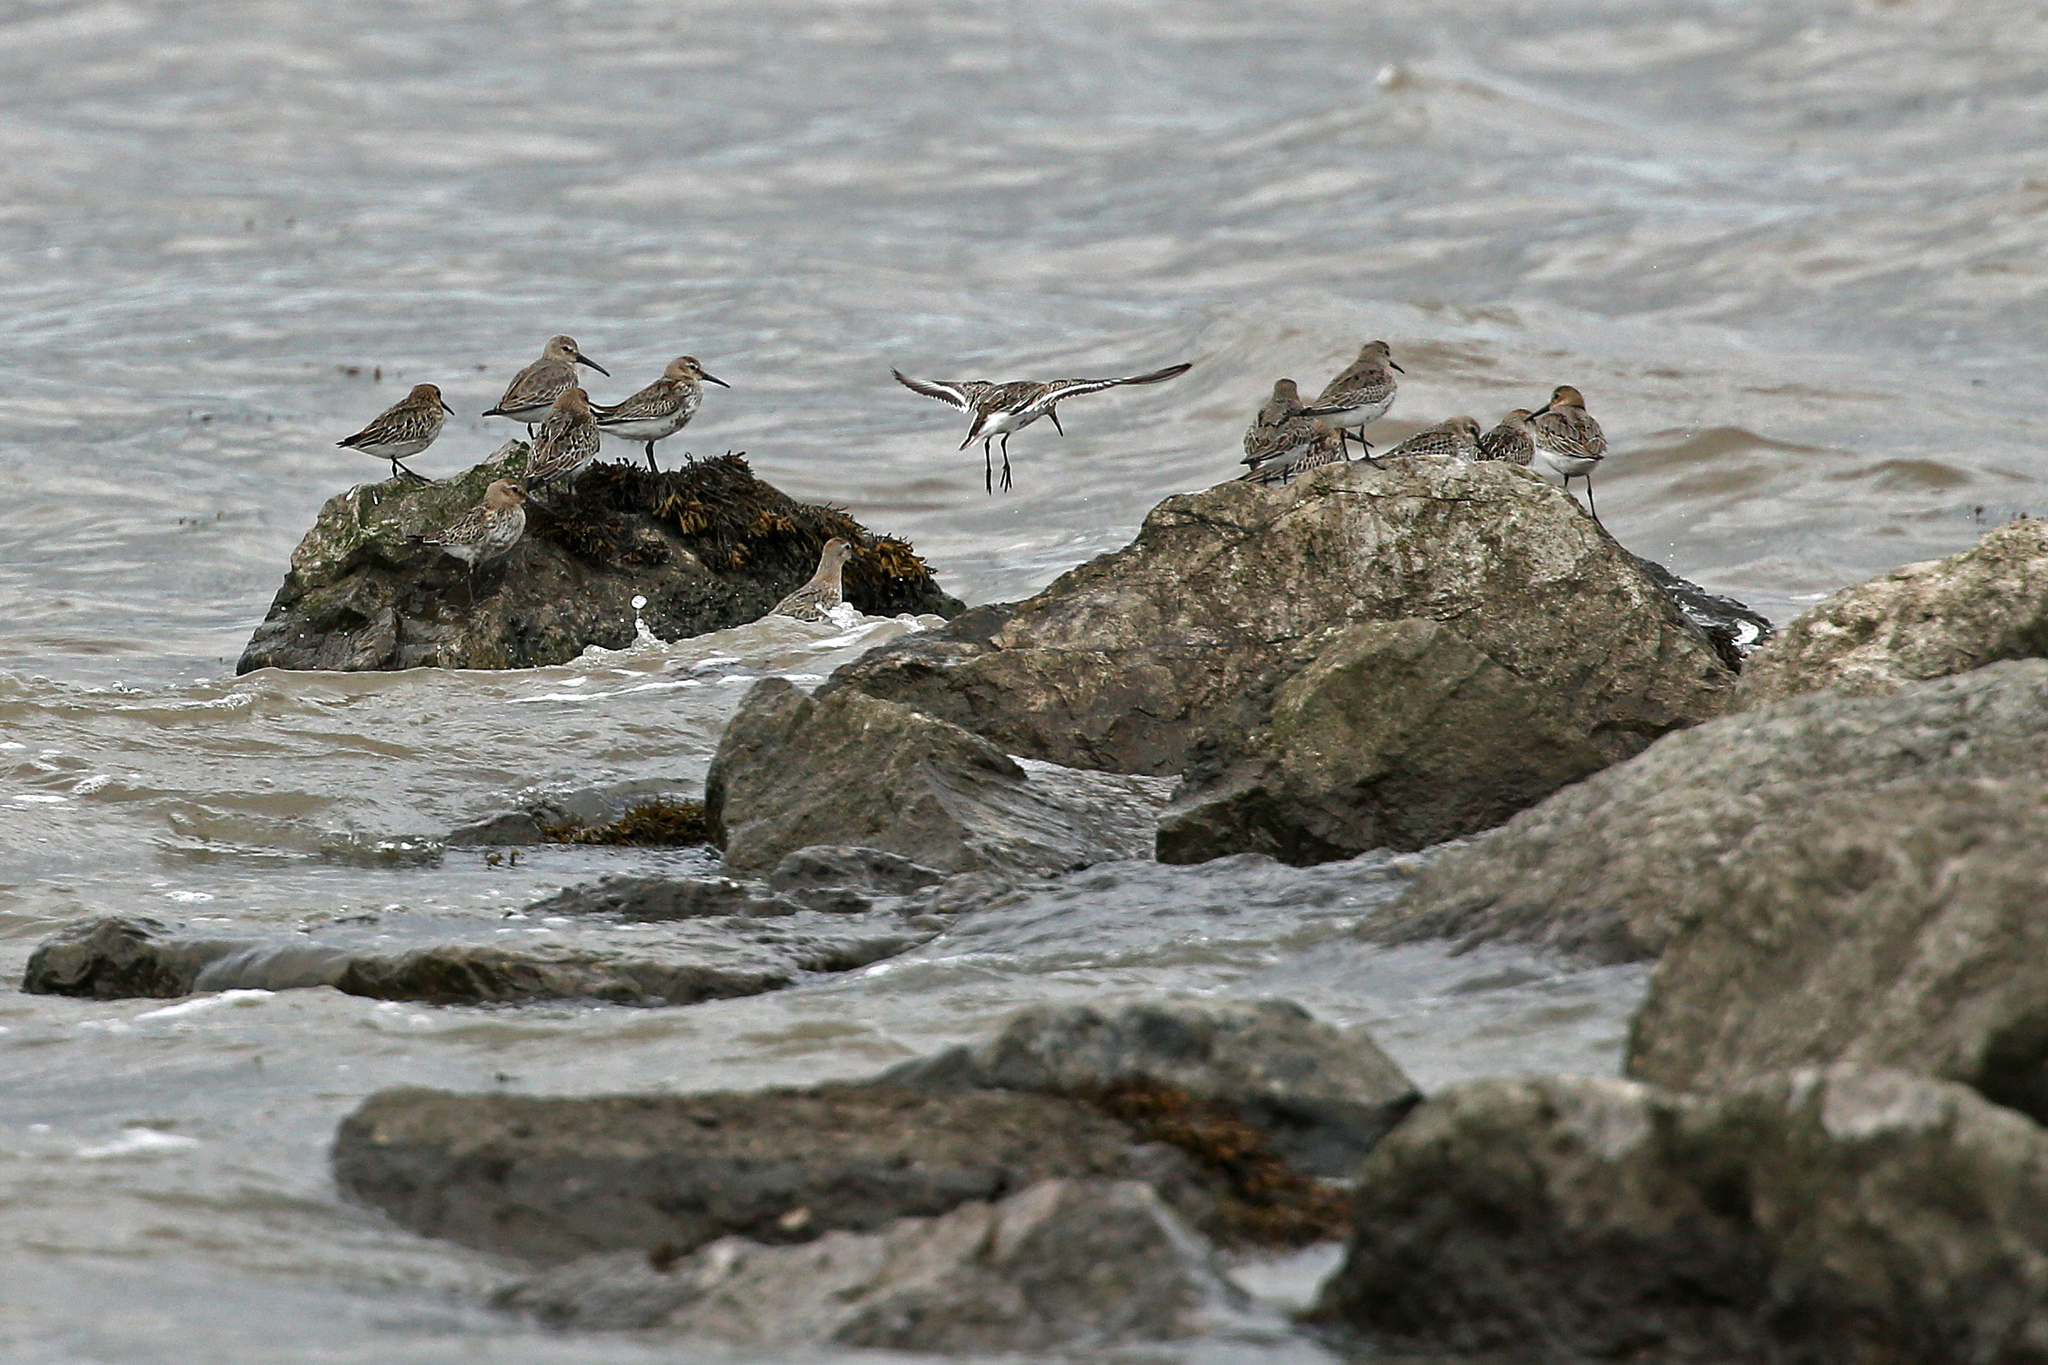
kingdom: Animalia
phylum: Chordata
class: Aves
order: Charadriiformes
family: Scolopacidae
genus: Calidris
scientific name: Calidris alpina
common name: Dunlin
